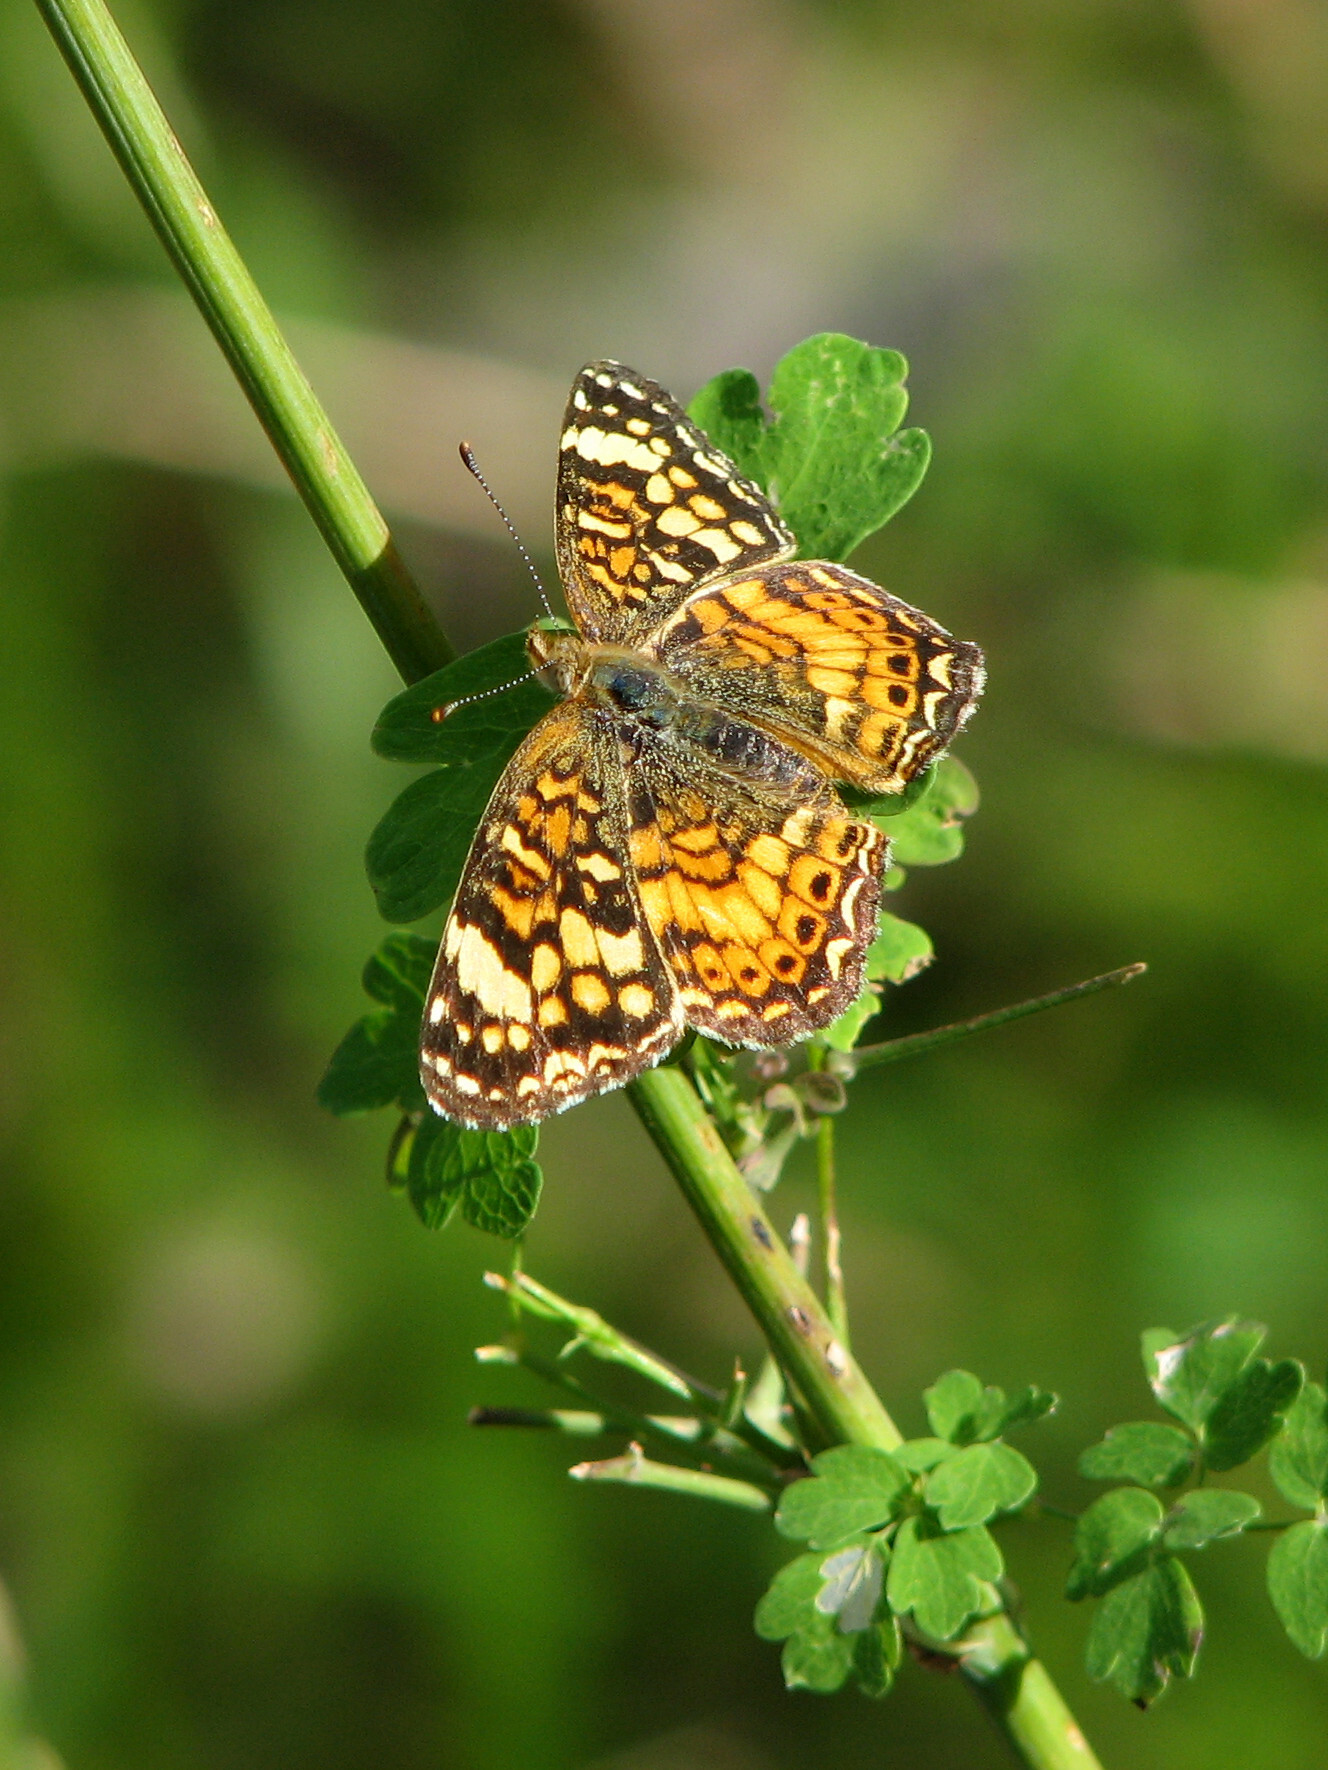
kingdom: Animalia
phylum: Arthropoda
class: Insecta
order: Lepidoptera
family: Nymphalidae
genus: Eresia
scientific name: Eresia aveyrona
